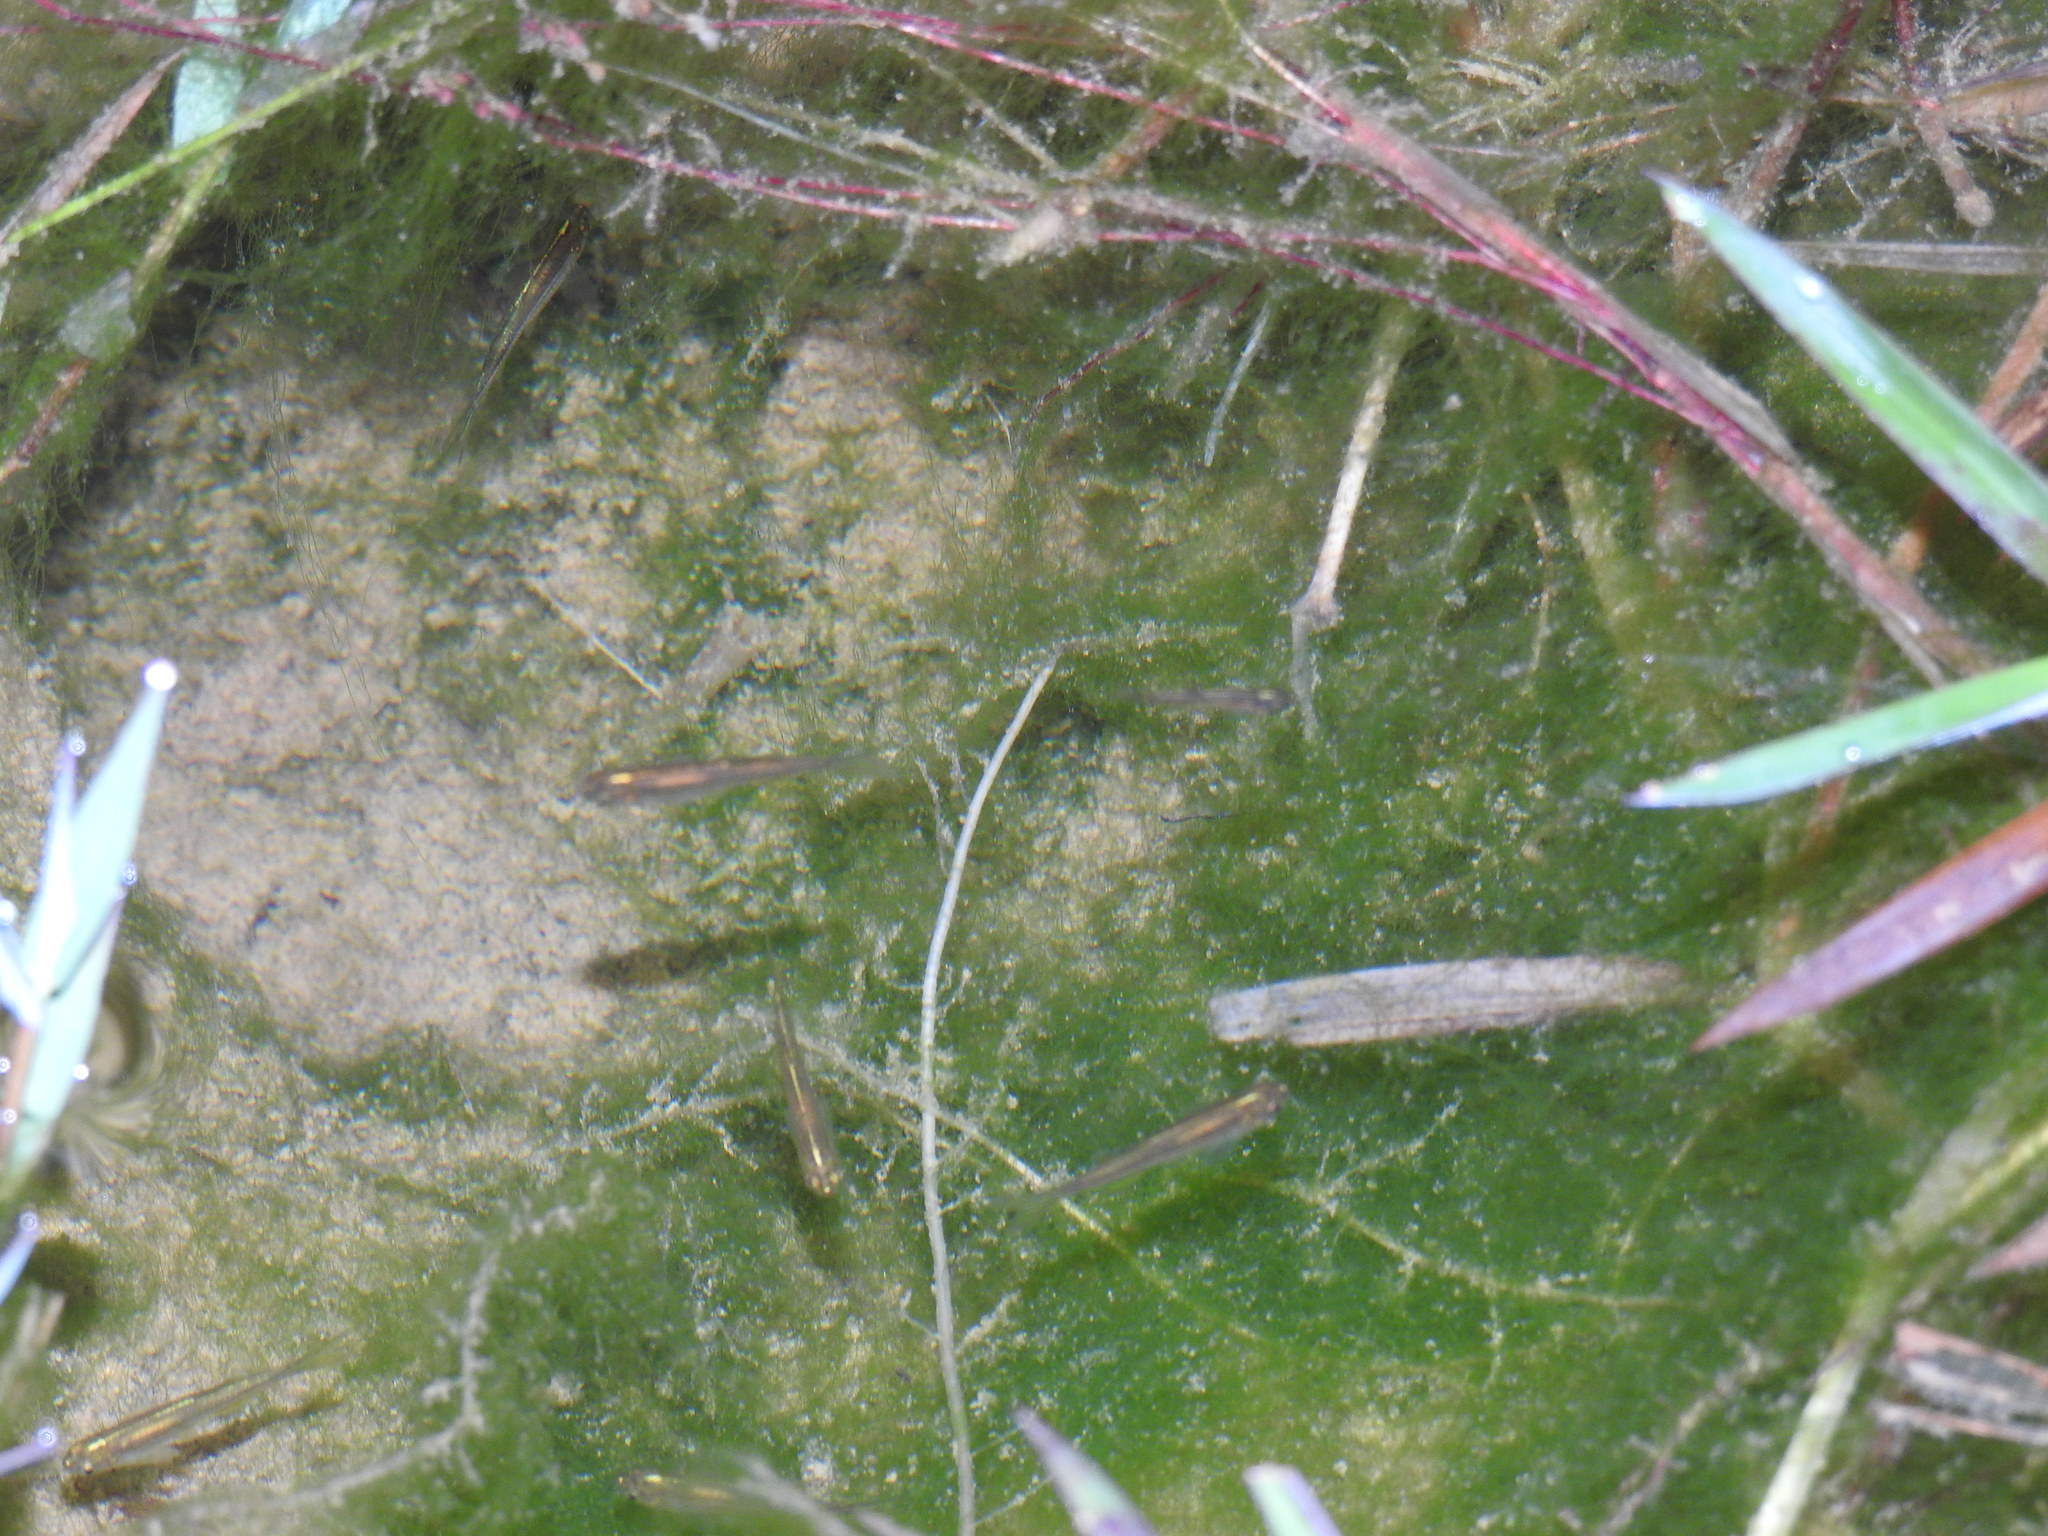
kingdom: Animalia
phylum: Chordata
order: Cypriniformes
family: Cyprinidae
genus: Danio
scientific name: Danio rerio
